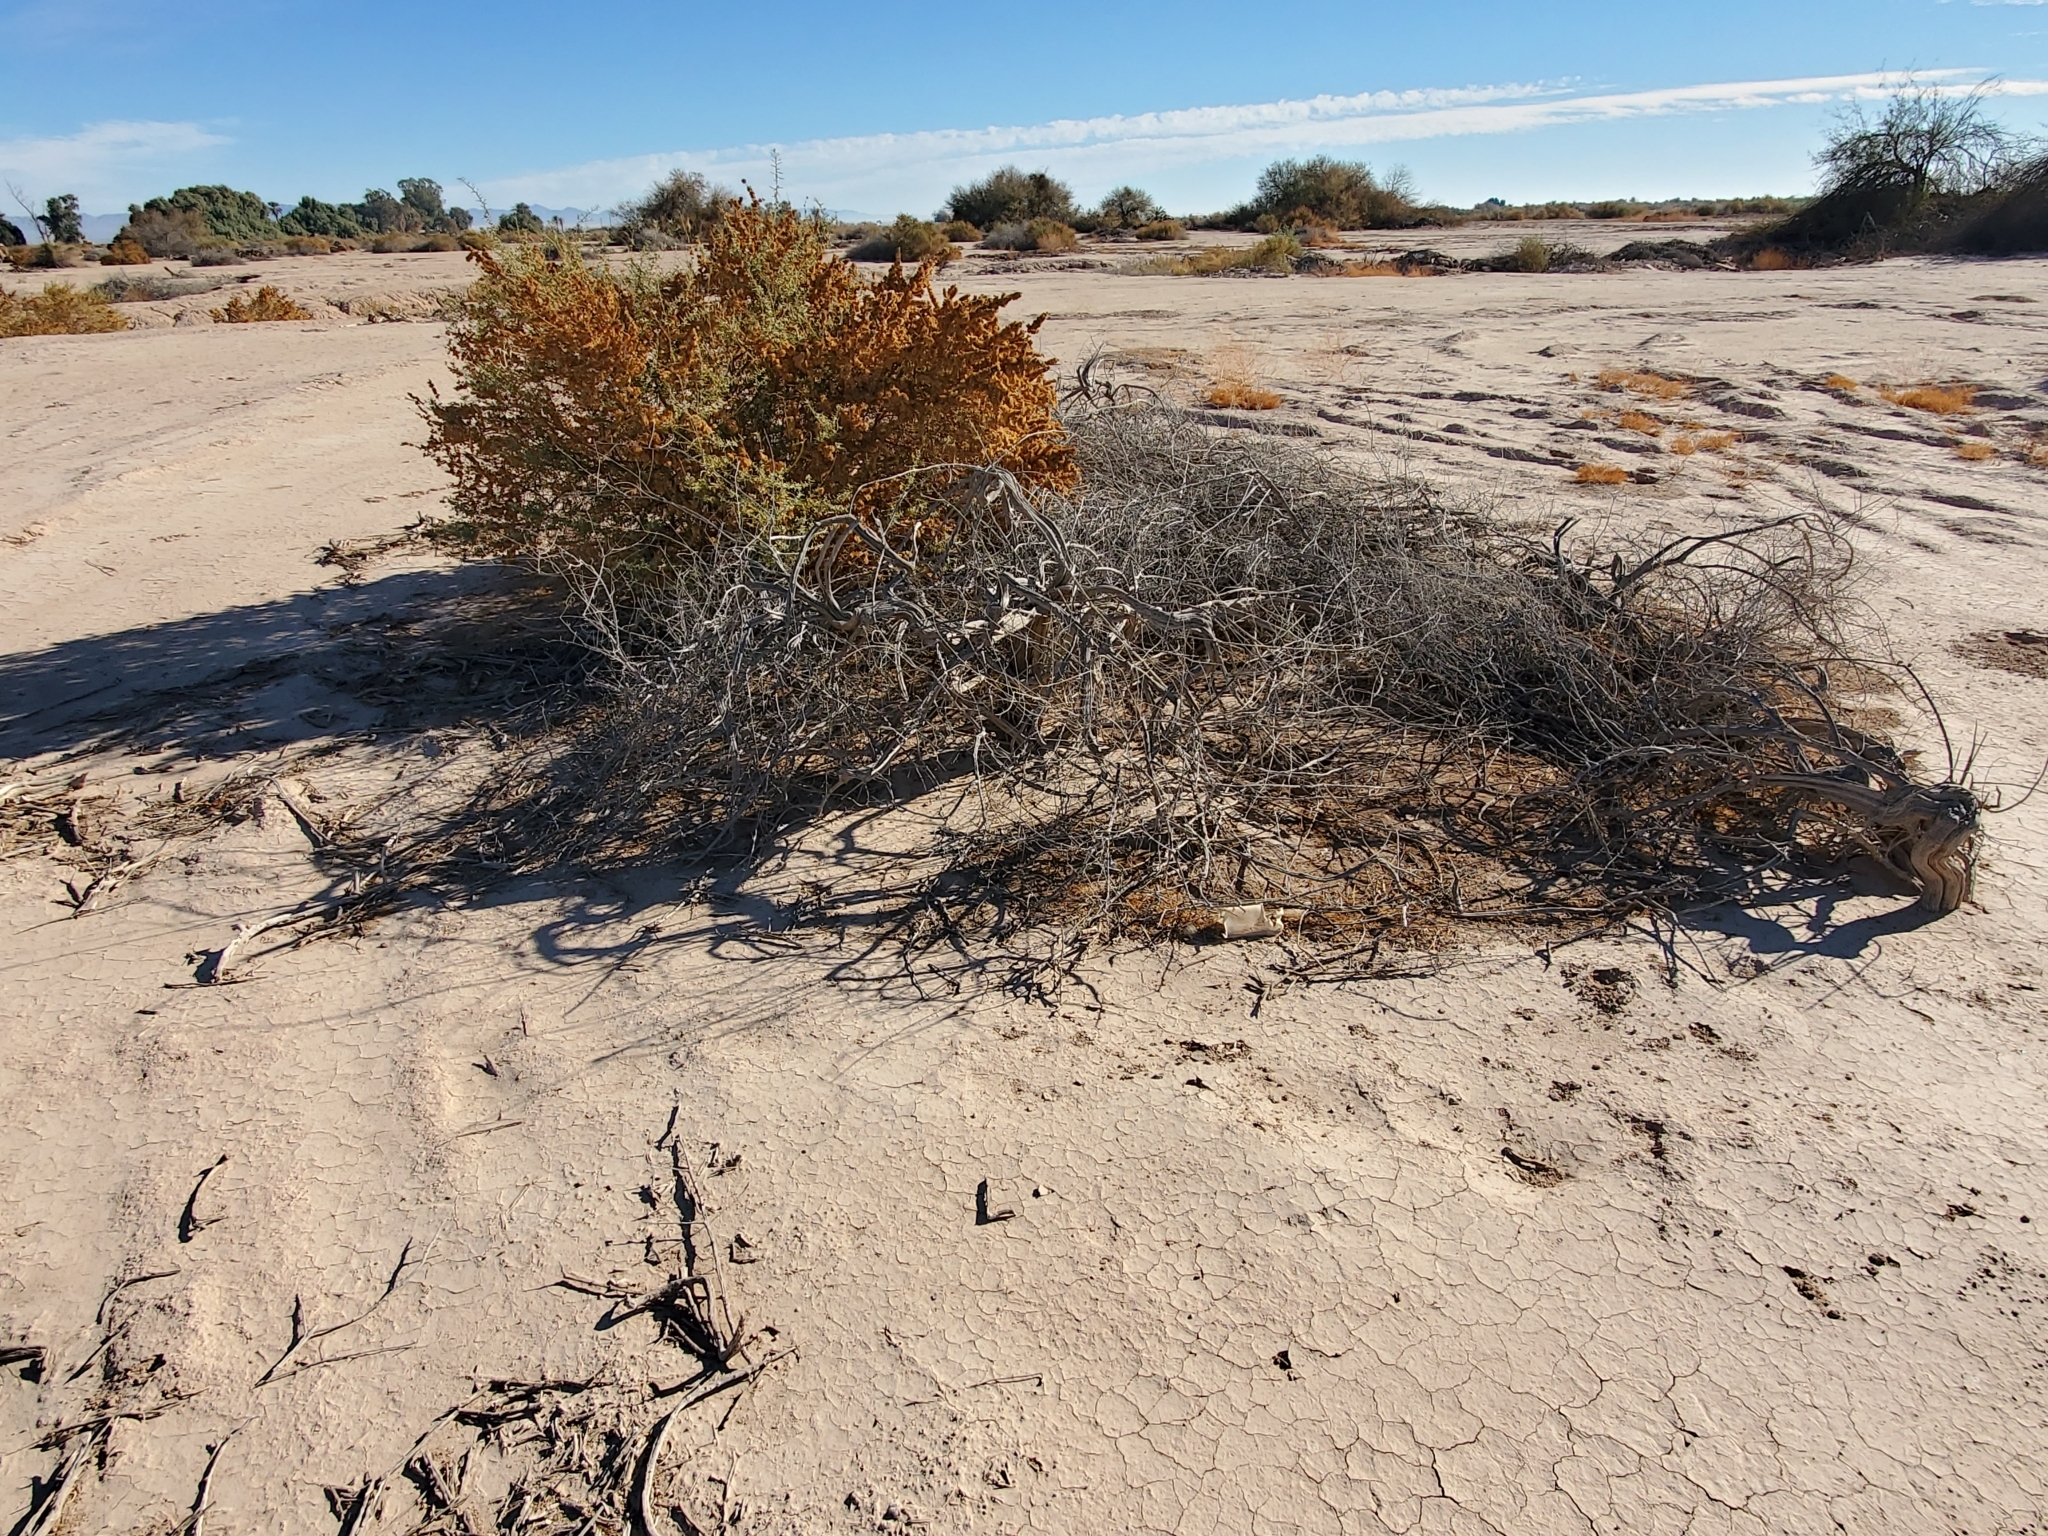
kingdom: Plantae
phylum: Tracheophyta
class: Magnoliopsida
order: Caryophyllales
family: Amaranthaceae
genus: Atriplex
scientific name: Atriplex canescens
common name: Four-wing saltbush
